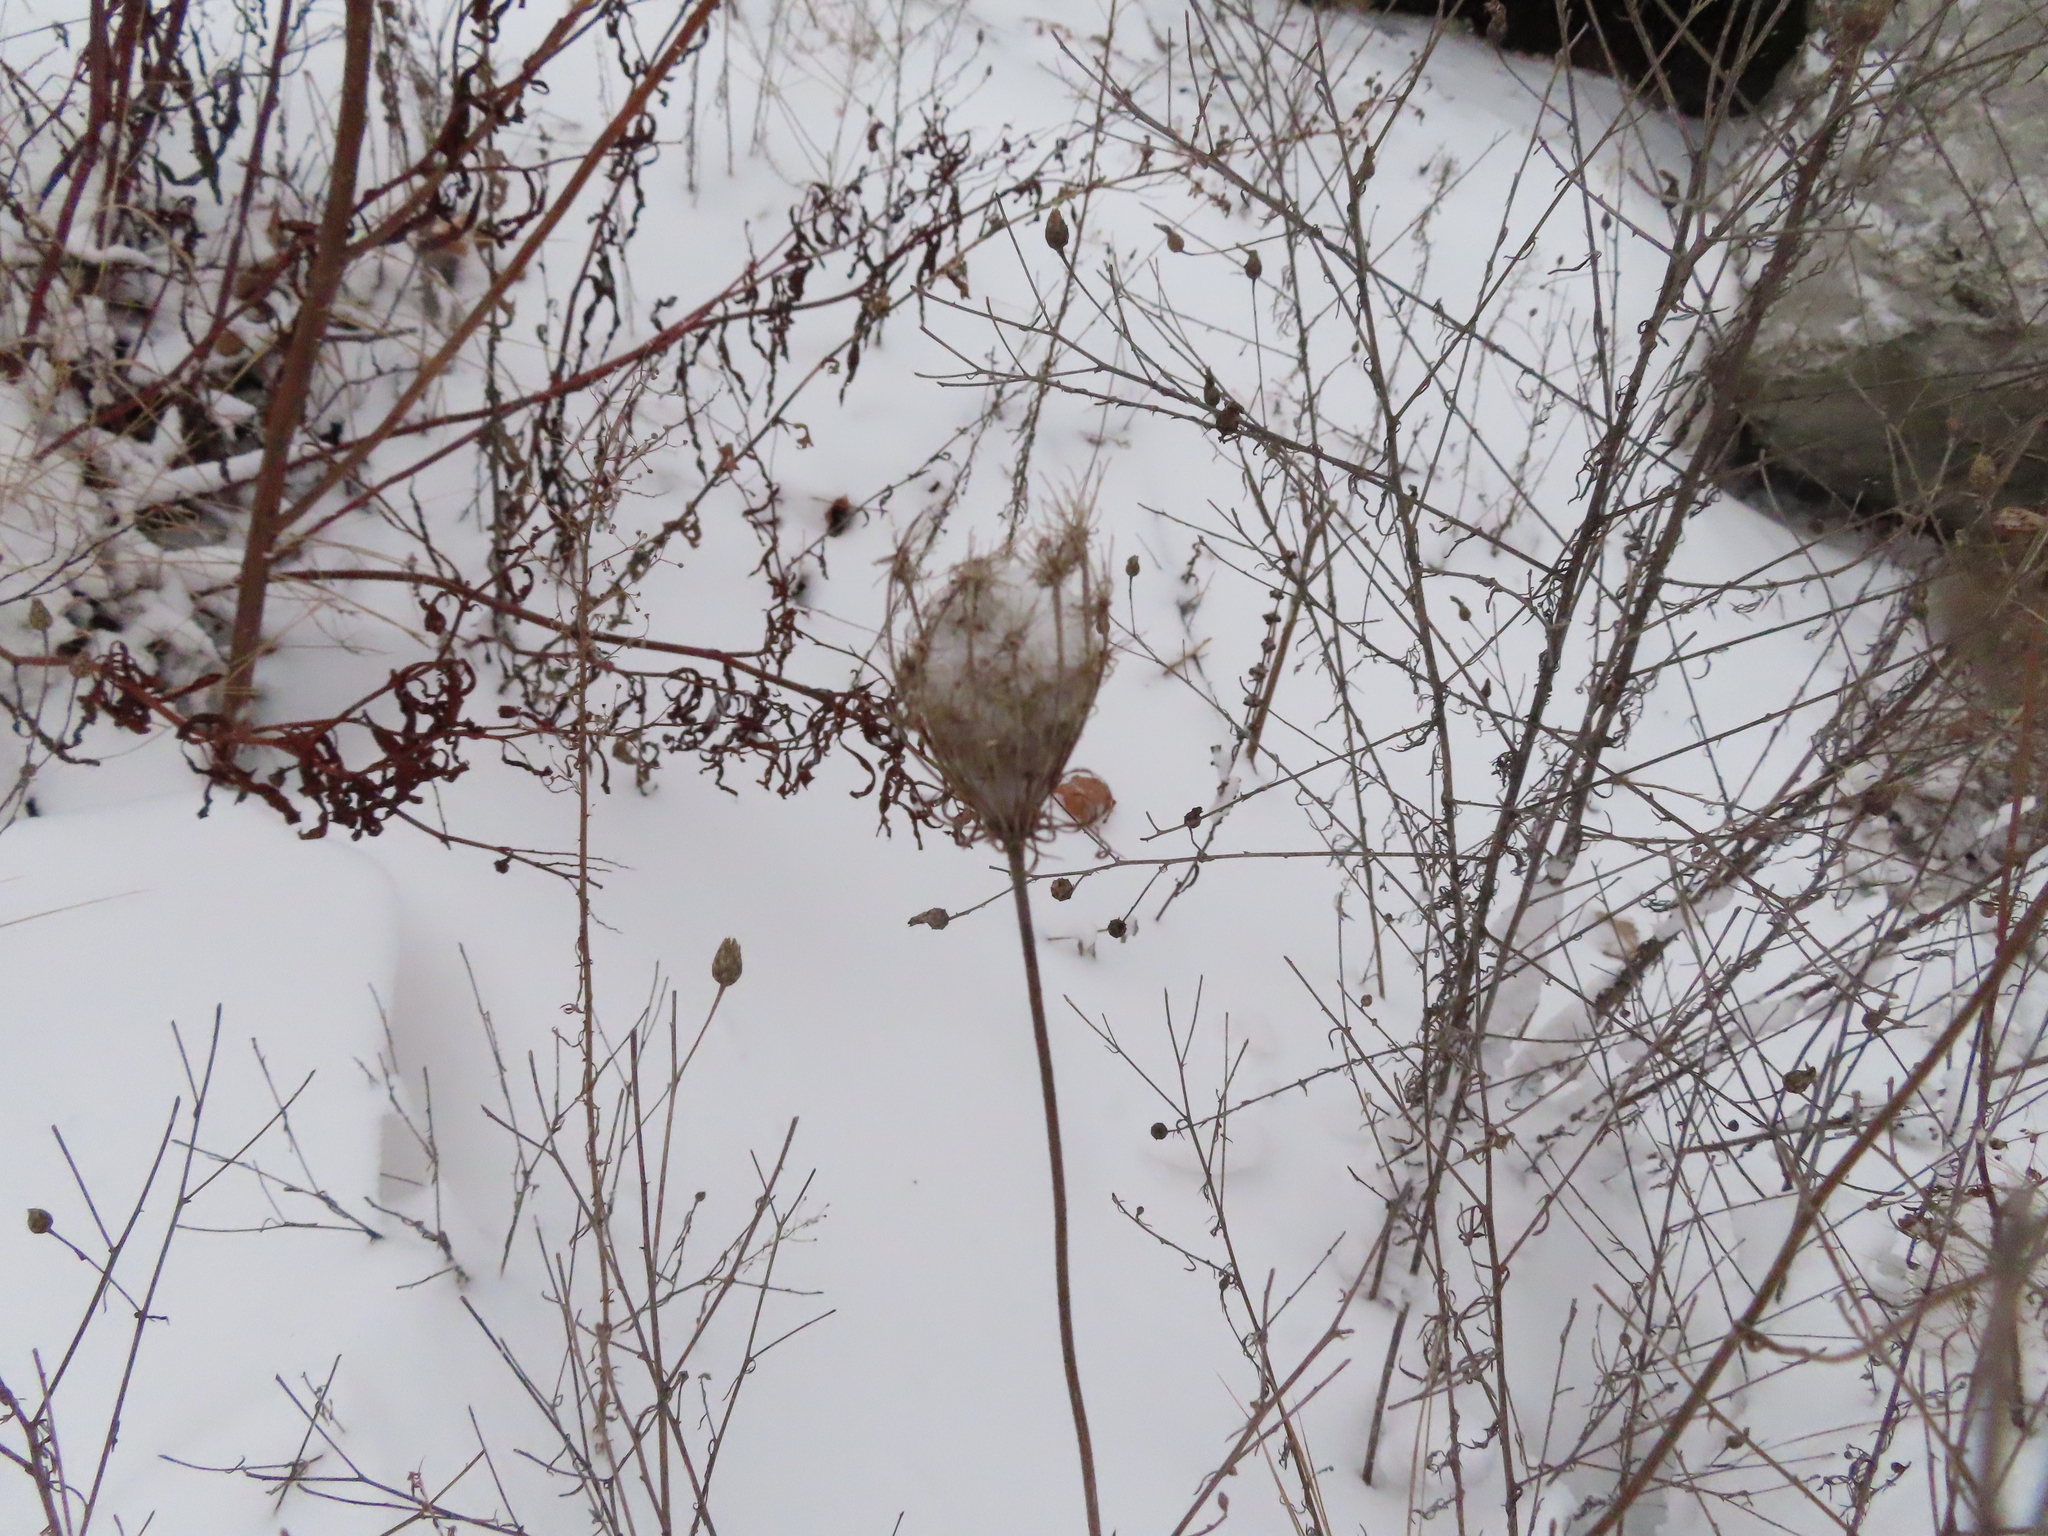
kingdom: Plantae
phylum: Tracheophyta
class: Magnoliopsida
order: Apiales
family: Apiaceae
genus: Daucus
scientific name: Daucus carota
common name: Wild carrot
